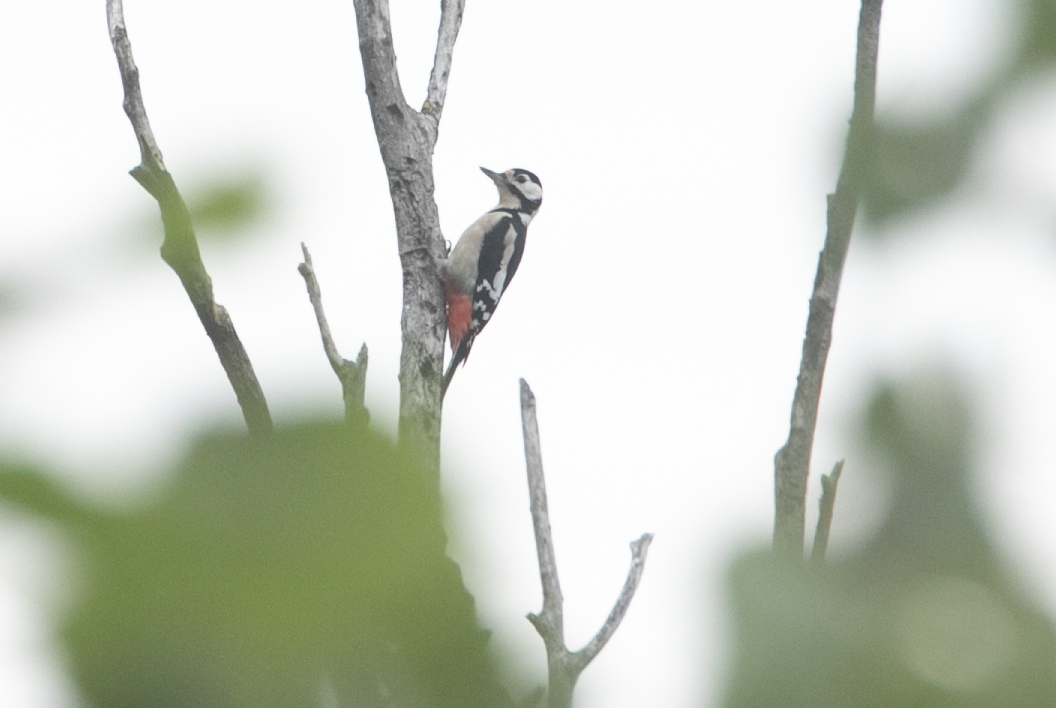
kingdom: Animalia
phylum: Chordata
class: Aves
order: Piciformes
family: Picidae
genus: Dendrocopos
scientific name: Dendrocopos major
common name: Great spotted woodpecker
